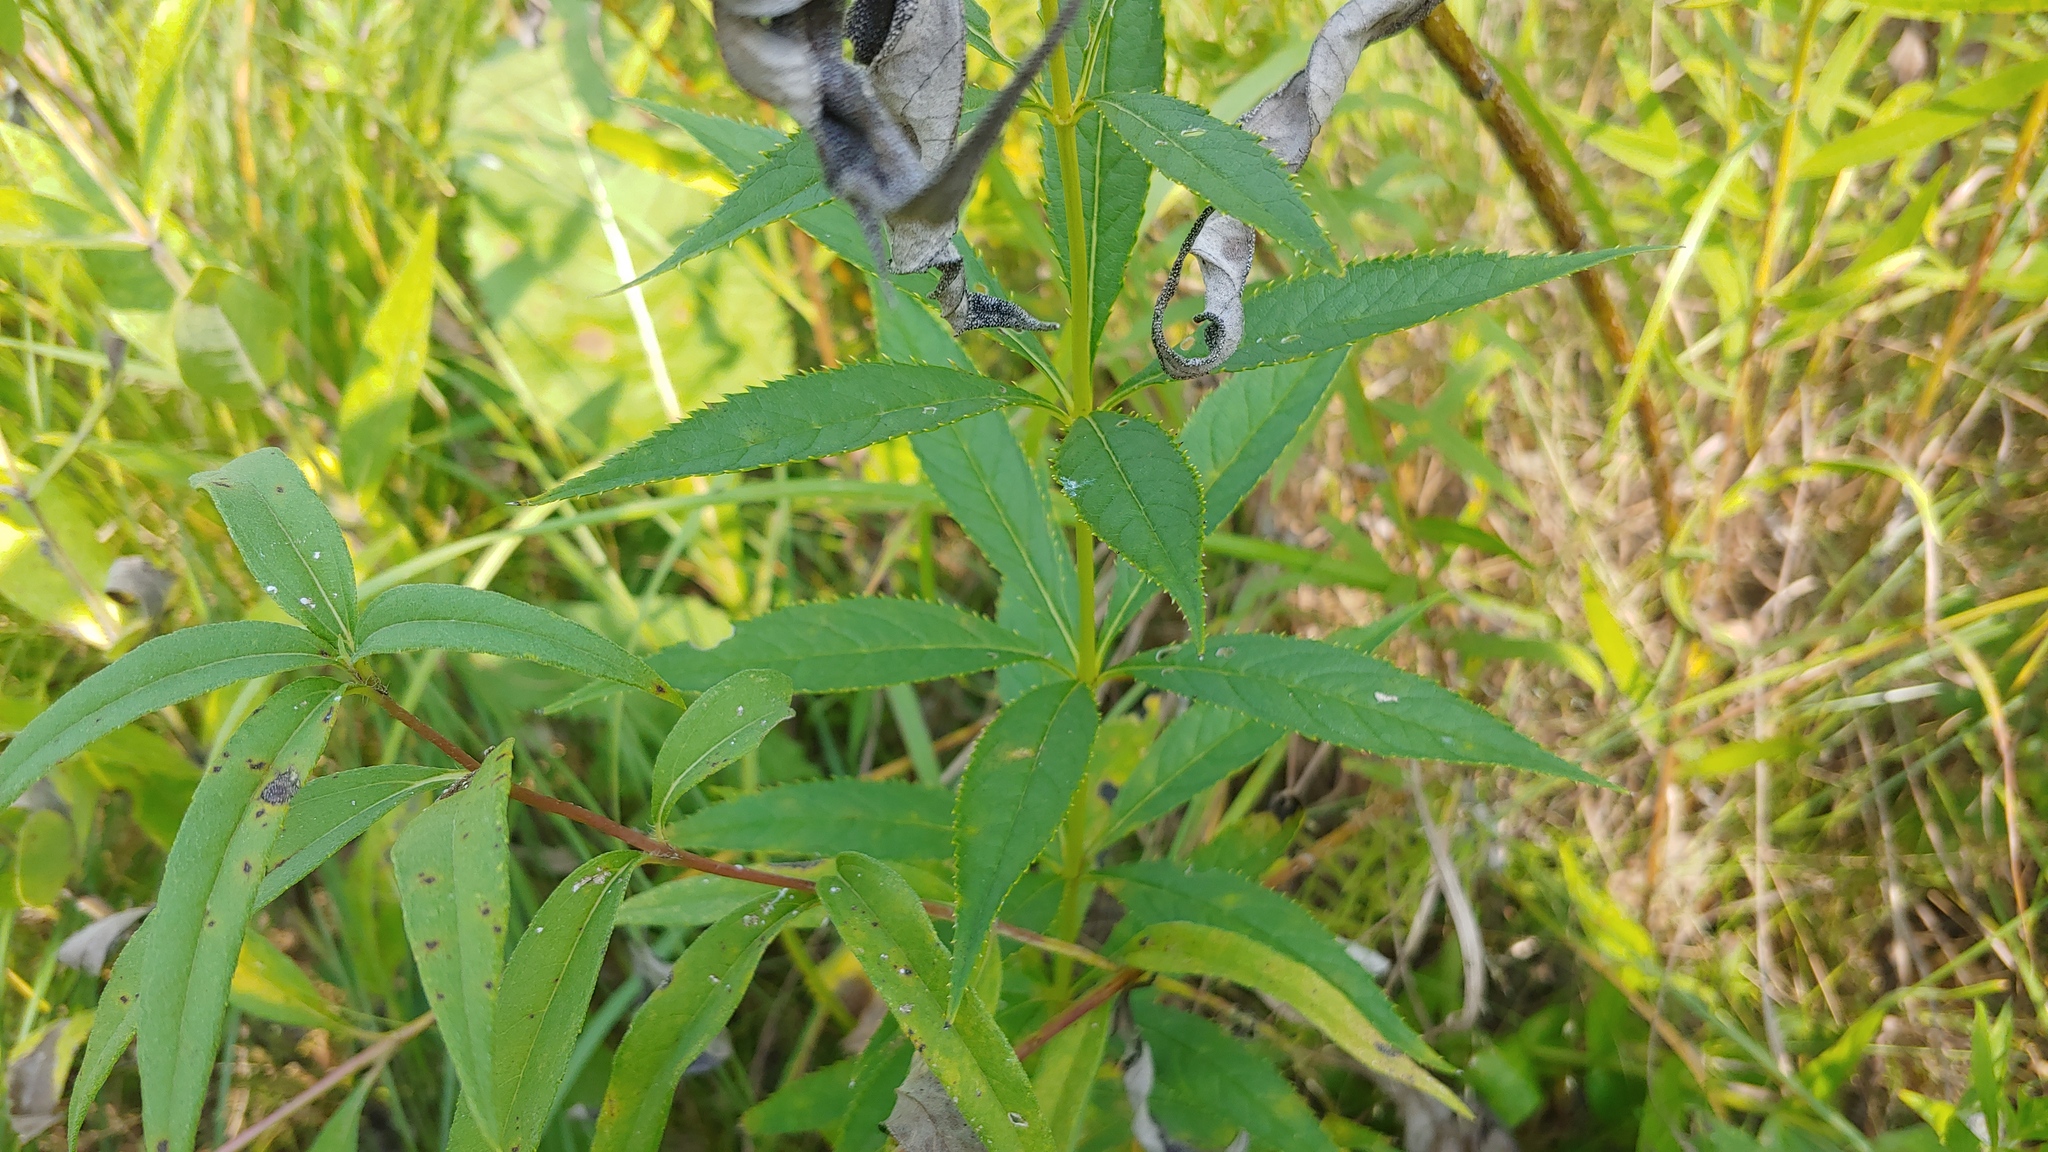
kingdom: Plantae
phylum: Tracheophyta
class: Magnoliopsida
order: Lamiales
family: Plantaginaceae
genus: Veronicastrum
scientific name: Veronicastrum virginicum
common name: Blackroot
